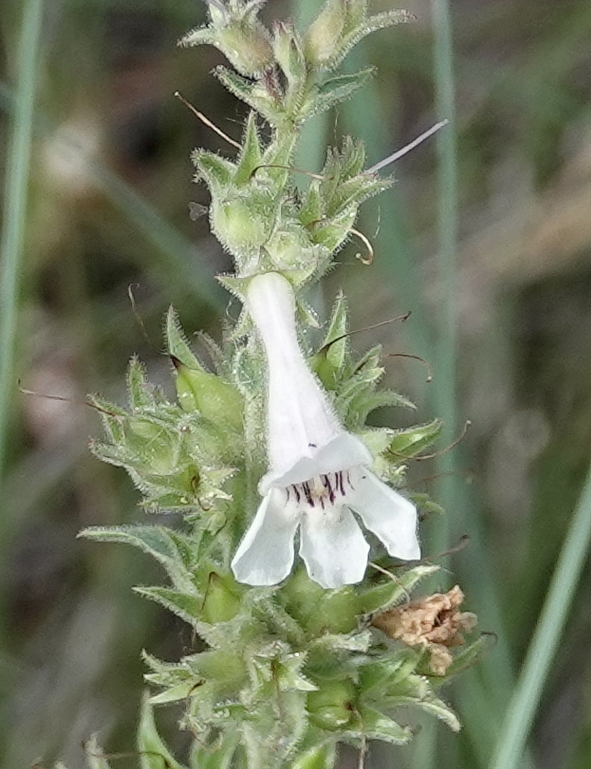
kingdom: Plantae
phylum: Tracheophyta
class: Magnoliopsida
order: Lamiales
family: Plantaginaceae
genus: Penstemon
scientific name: Penstemon albidus
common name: White beardtongue
